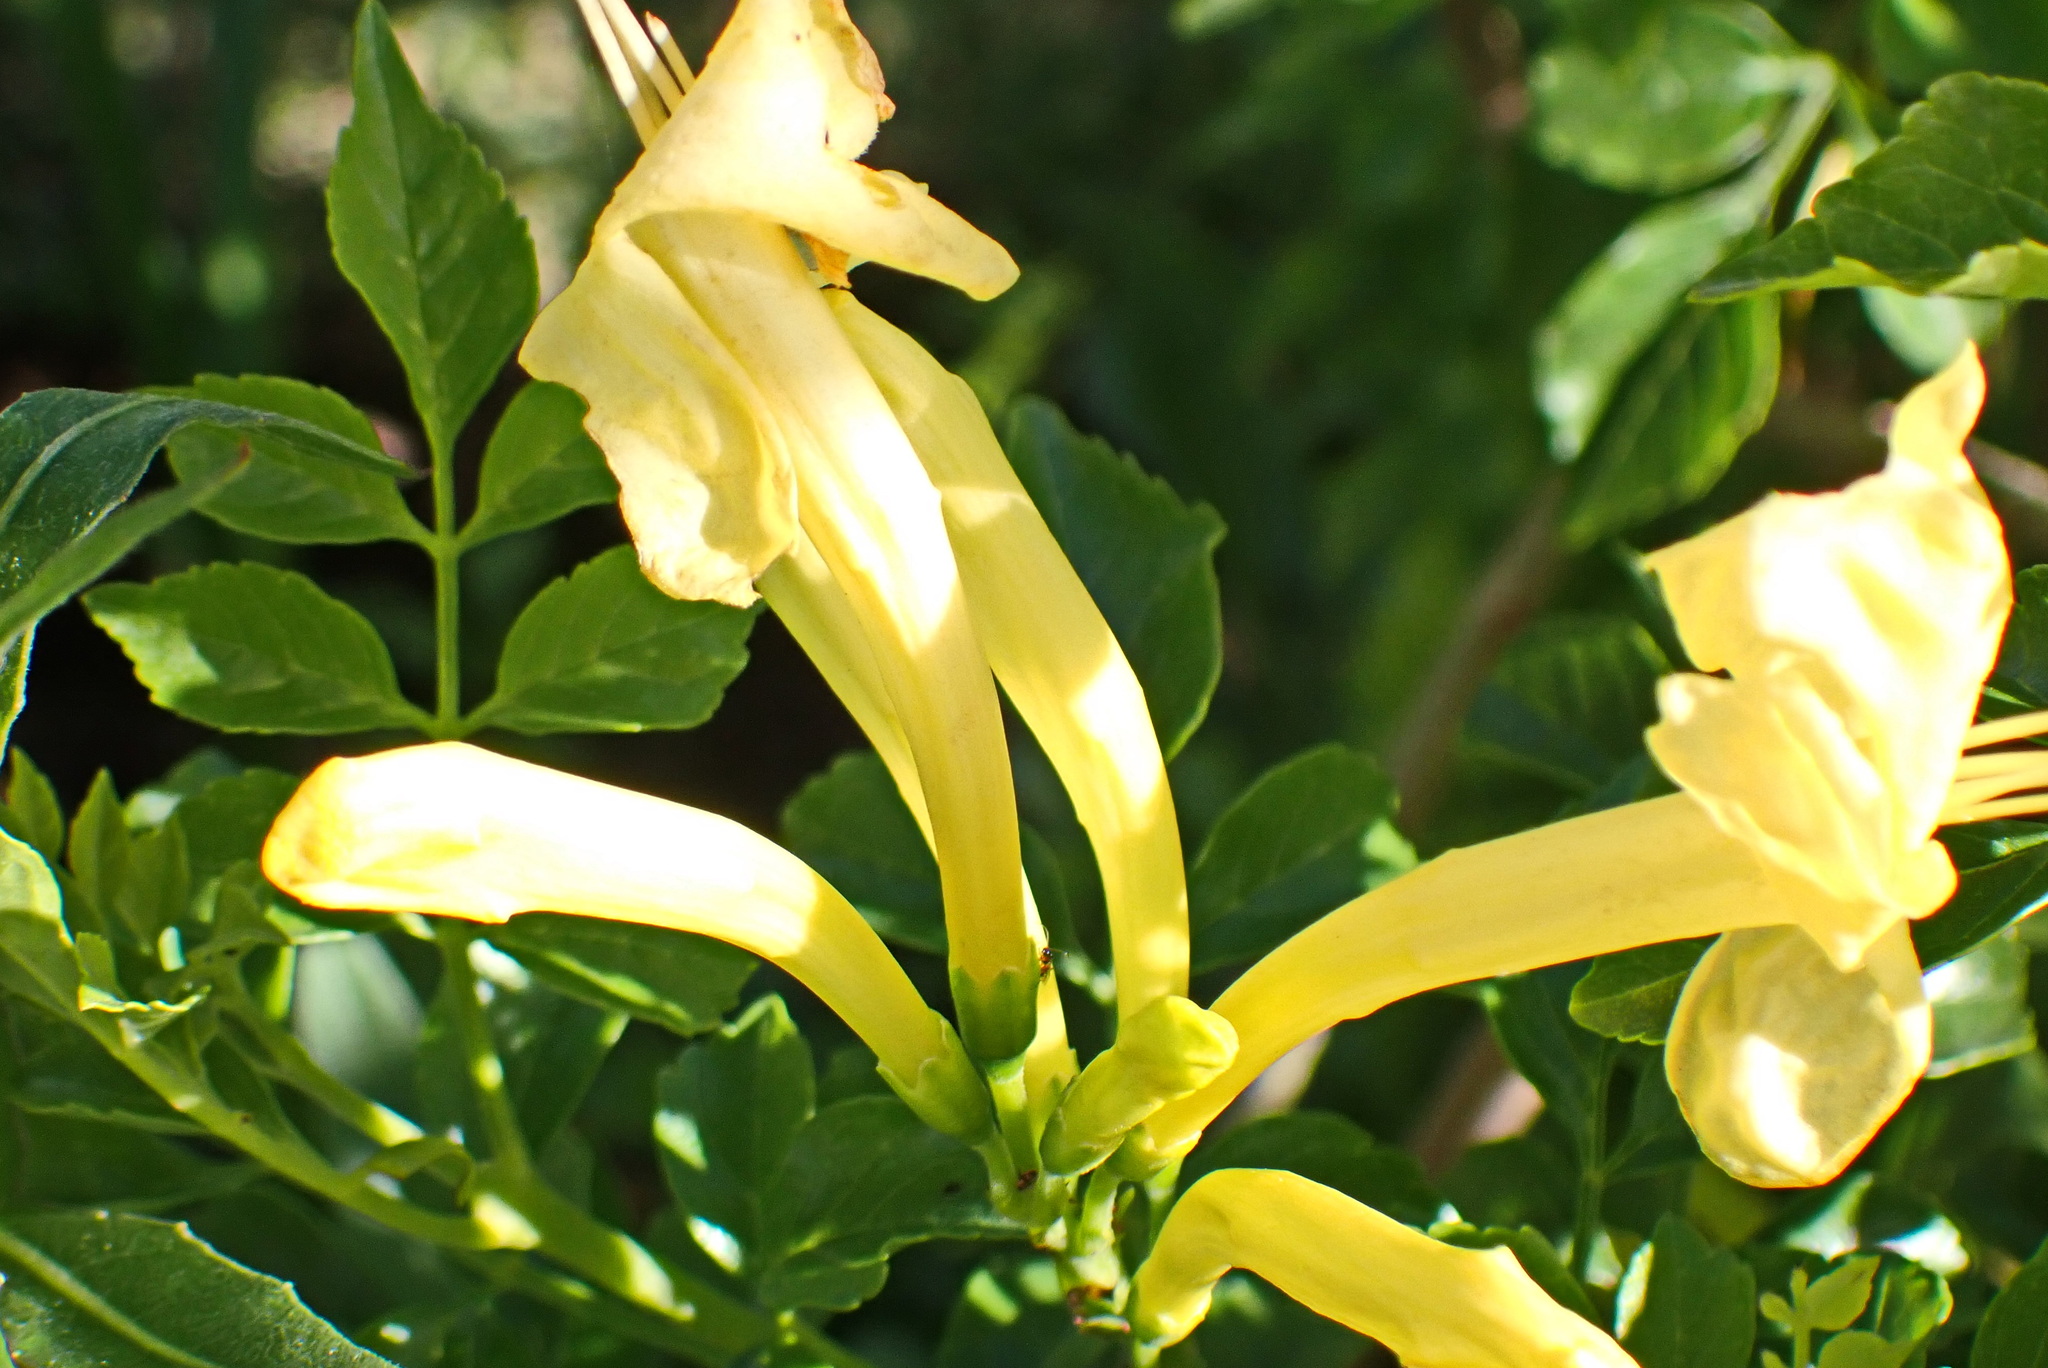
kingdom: Plantae
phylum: Tracheophyta
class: Magnoliopsida
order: Lamiales
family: Bignoniaceae
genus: Tecomaria
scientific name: Tecomaria capensis
